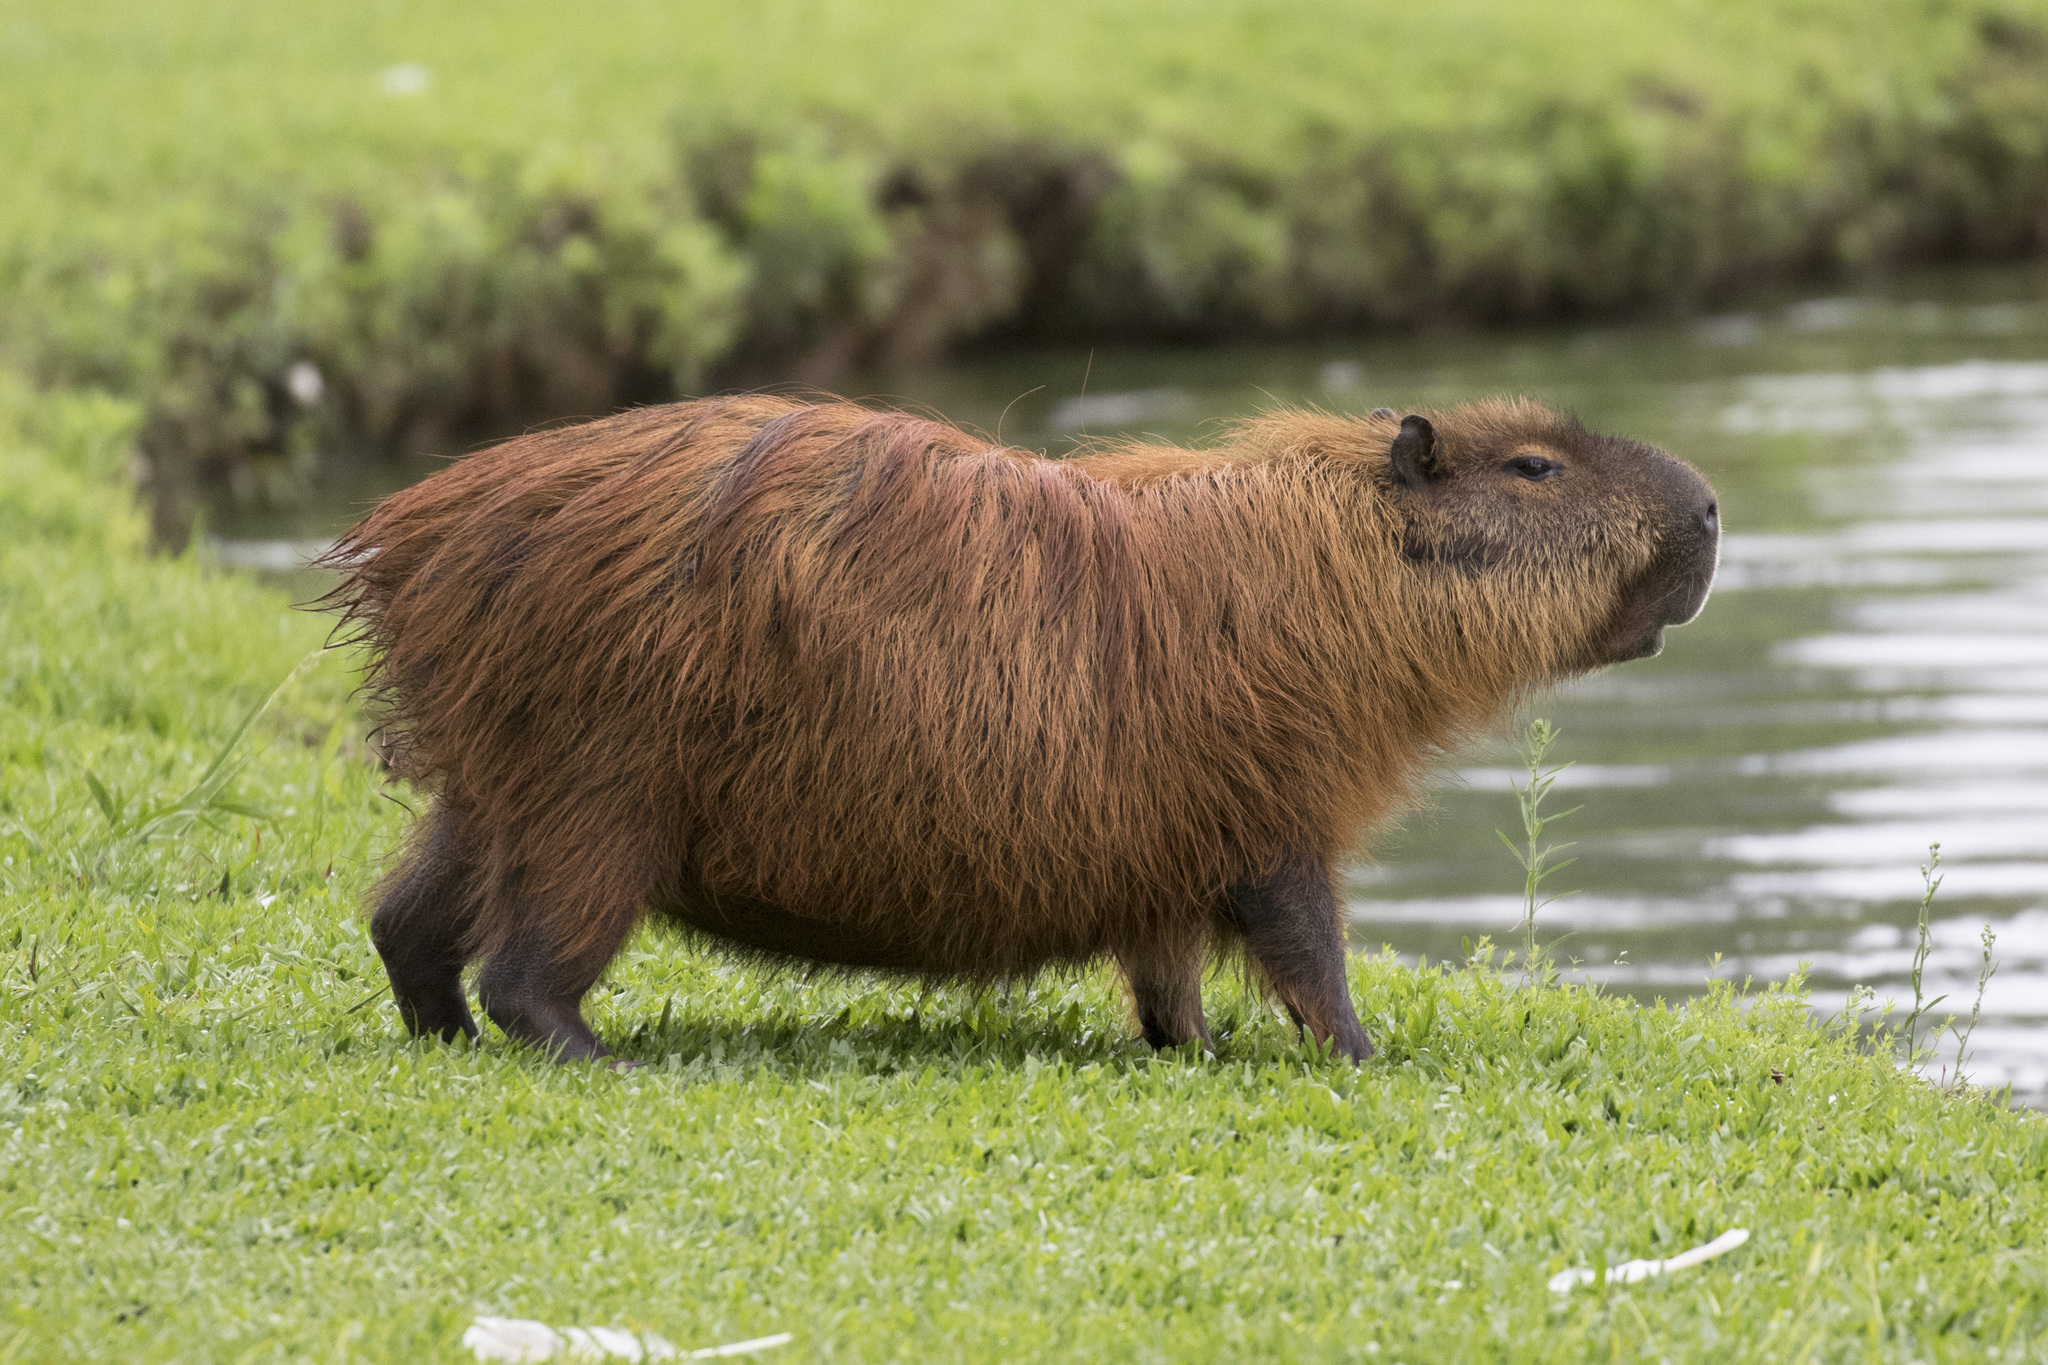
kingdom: Animalia
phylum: Chordata
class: Mammalia
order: Rodentia
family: Caviidae
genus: Hydrochoerus
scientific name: Hydrochoerus hydrochaeris
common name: Capybara
